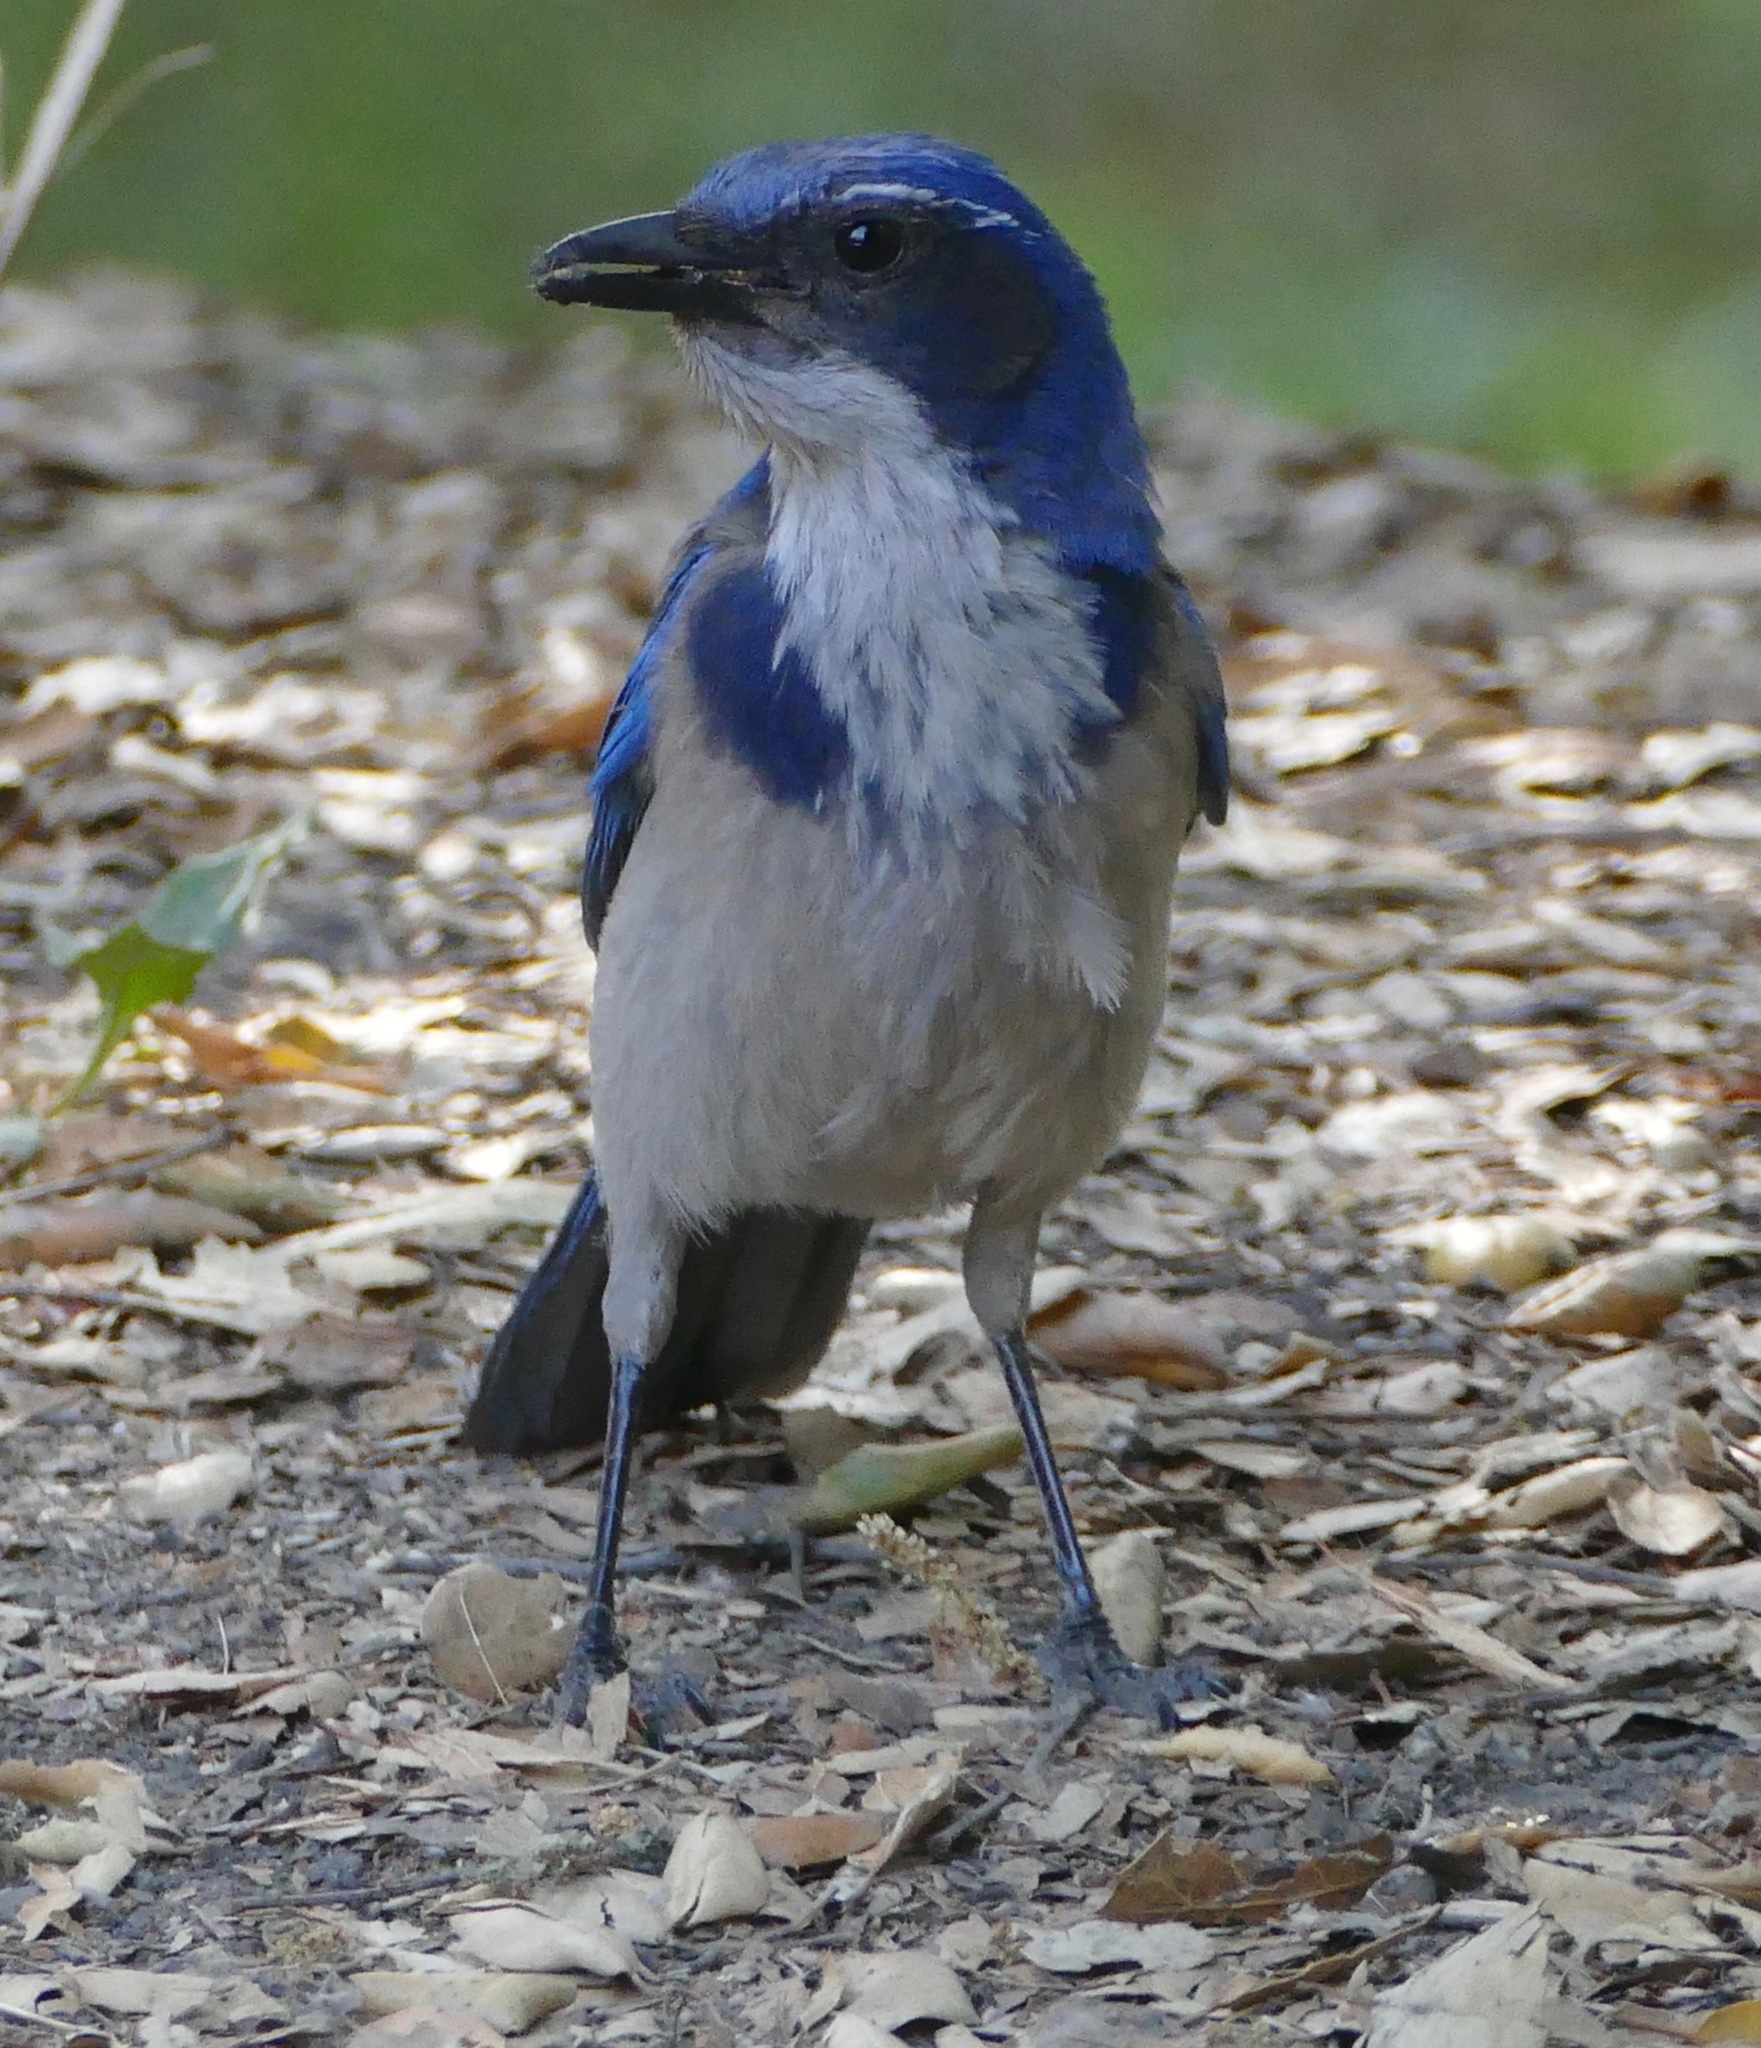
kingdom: Animalia
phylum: Chordata
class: Aves
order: Passeriformes
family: Corvidae
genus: Aphelocoma
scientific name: Aphelocoma californica
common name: California scrub-jay
